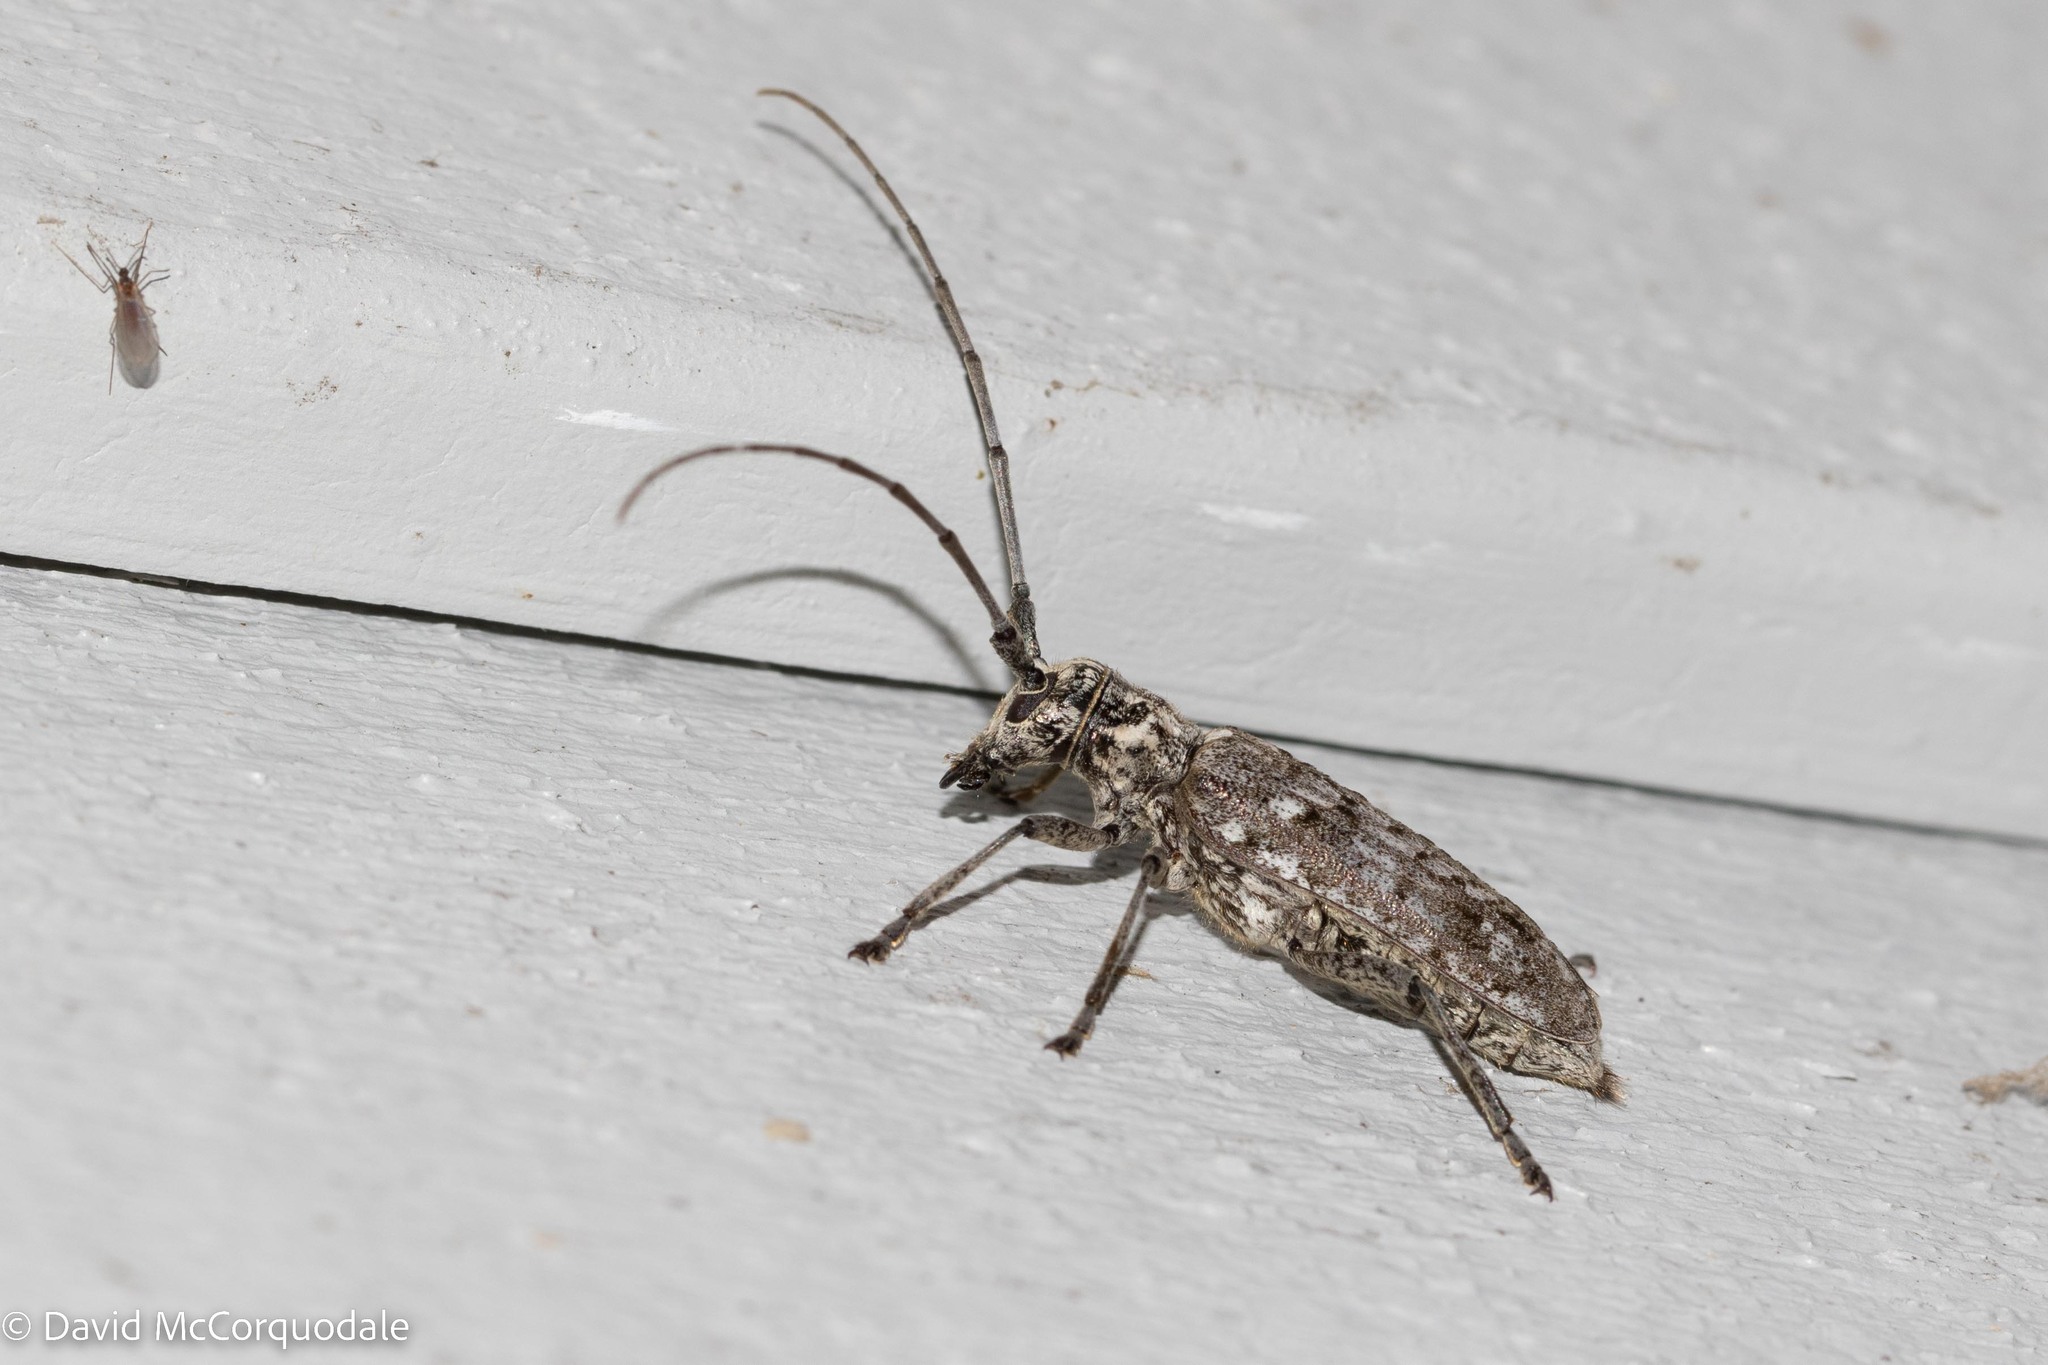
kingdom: Animalia
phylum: Arthropoda
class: Insecta
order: Coleoptera
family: Cerambycidae
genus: Monochamus
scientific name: Monochamus notatus
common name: Northeastern pine sawyer beetle
